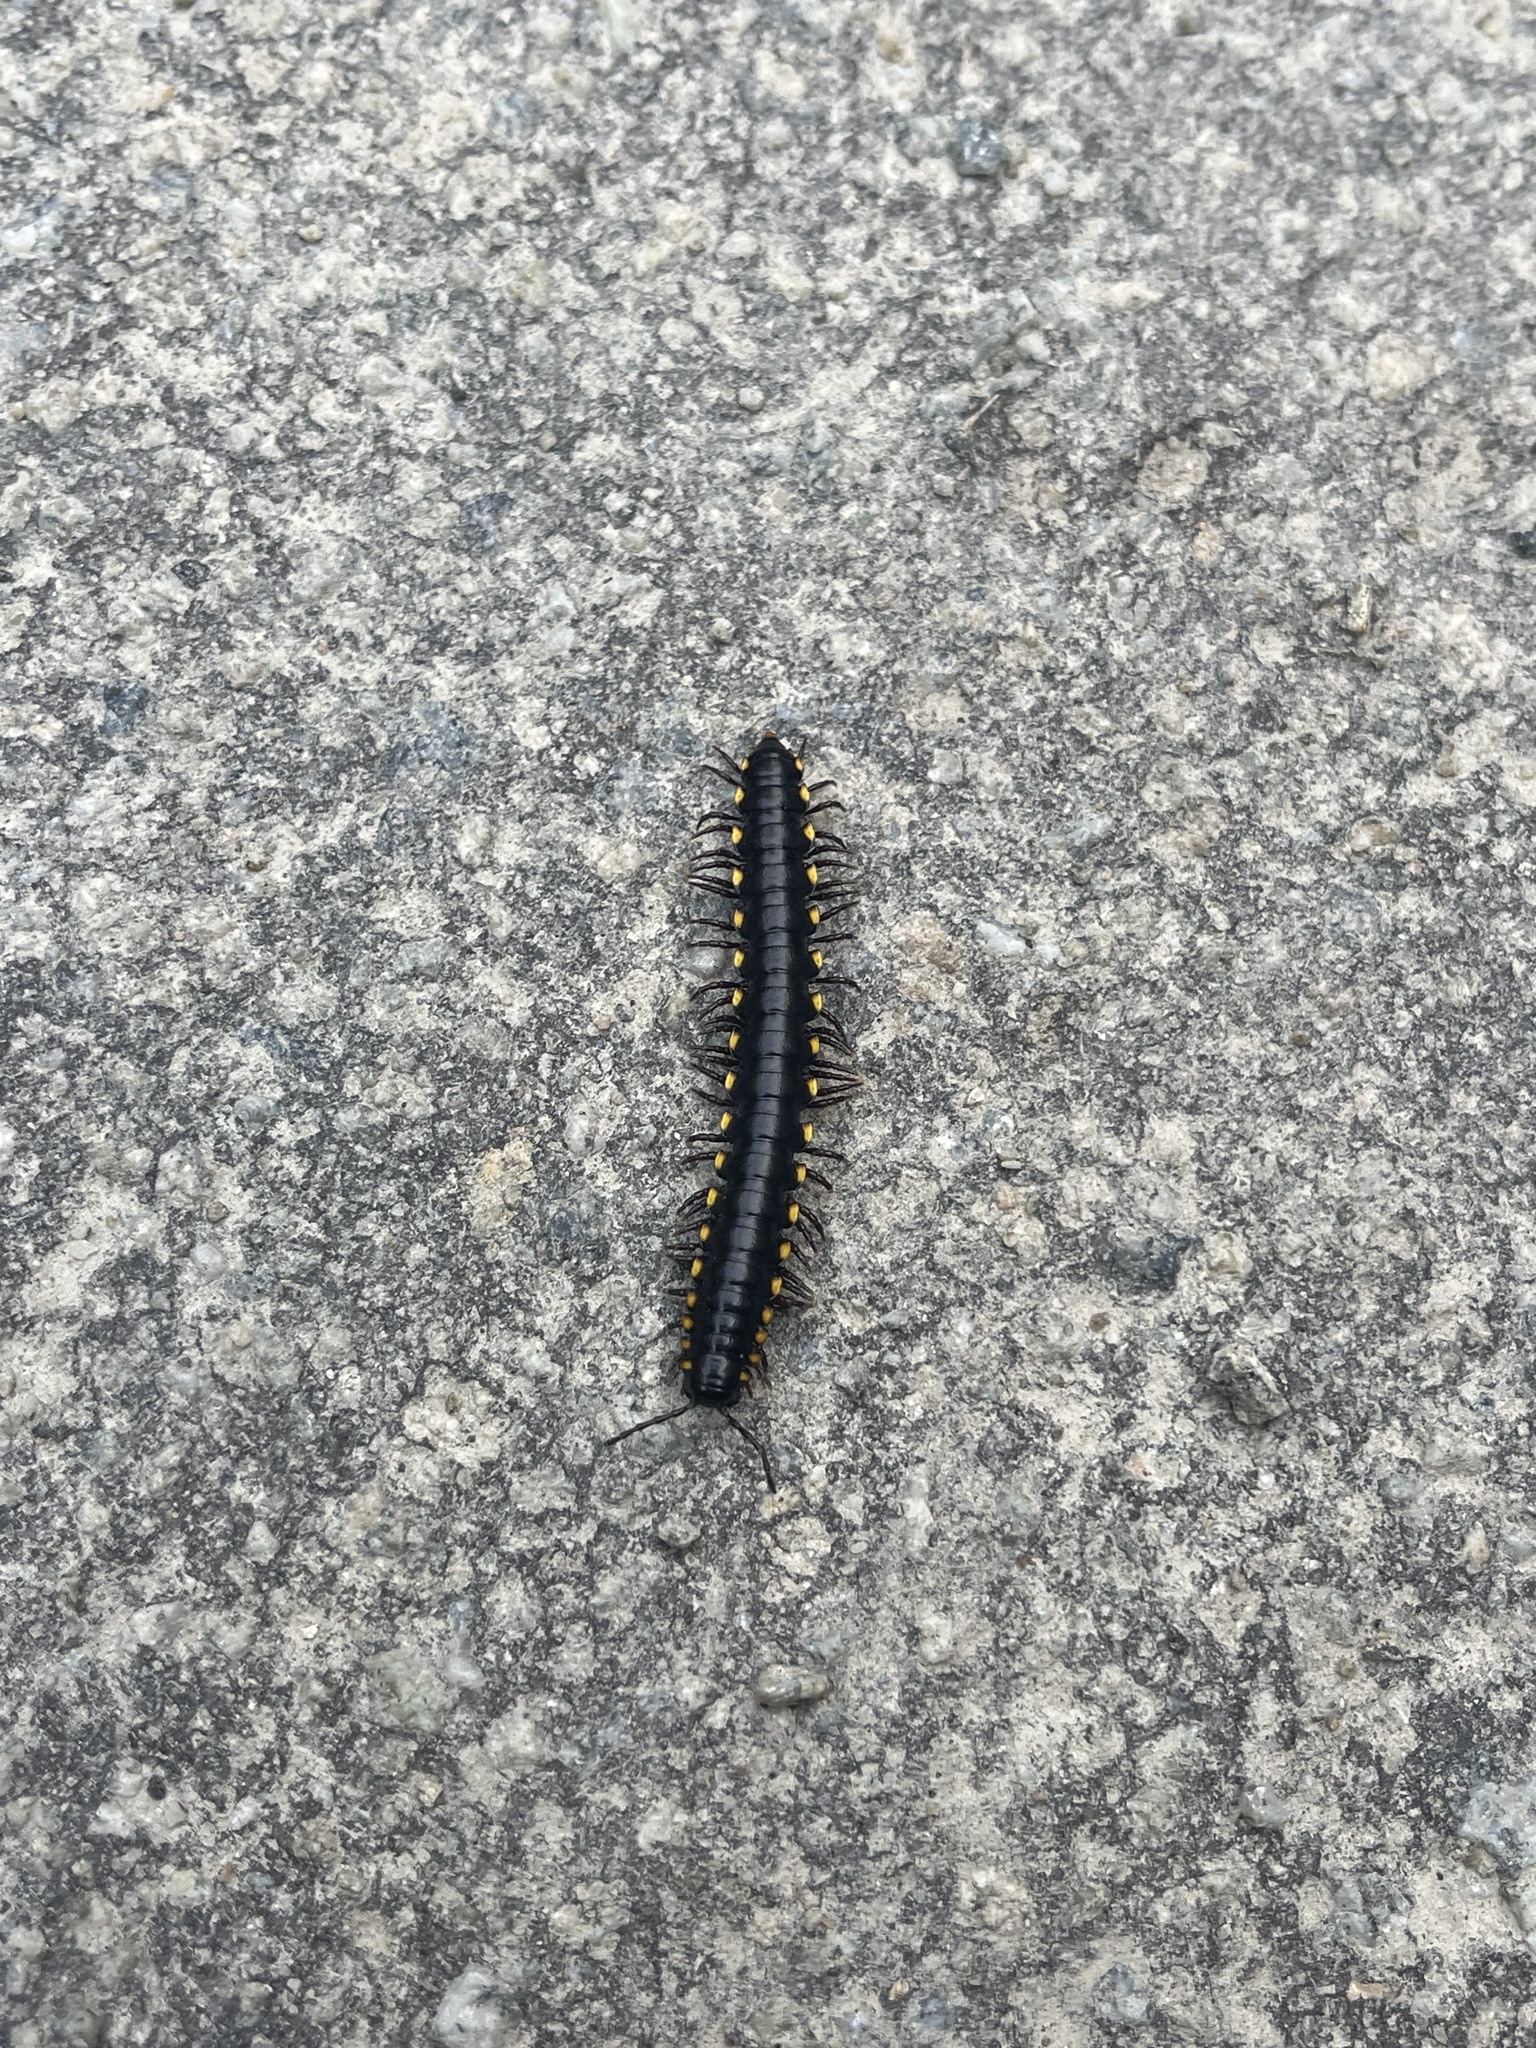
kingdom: Animalia
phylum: Arthropoda
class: Diplopoda
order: Polydesmida
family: Xystodesmidae
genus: Harpaphe
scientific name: Harpaphe haydeniana
